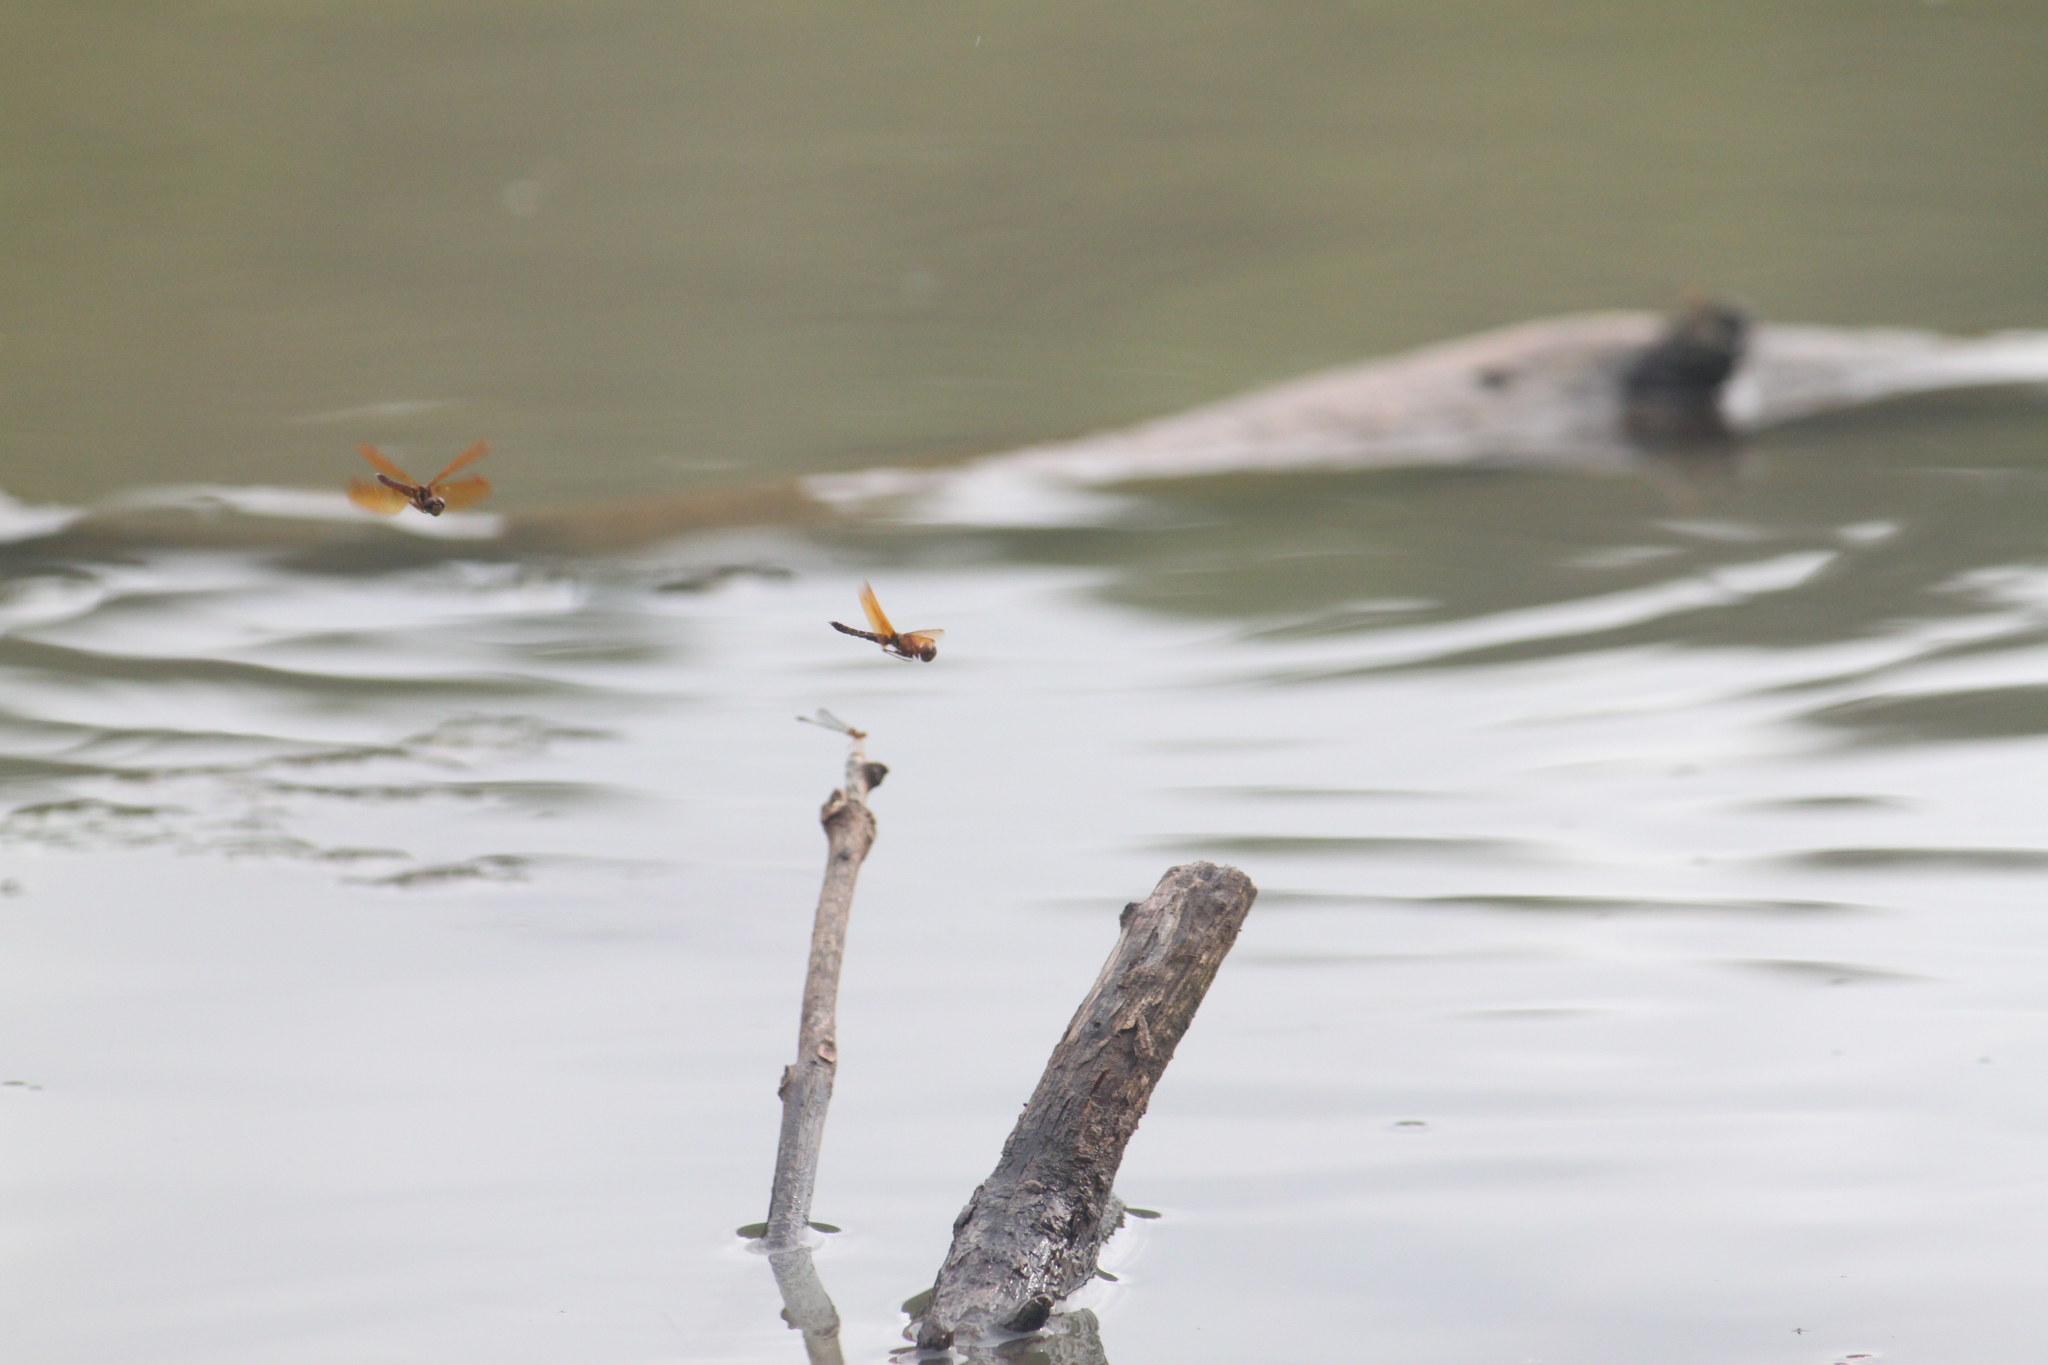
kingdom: Animalia
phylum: Arthropoda
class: Insecta
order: Odonata
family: Libellulidae
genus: Perithemis
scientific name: Perithemis tenera
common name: Eastern amberwing
